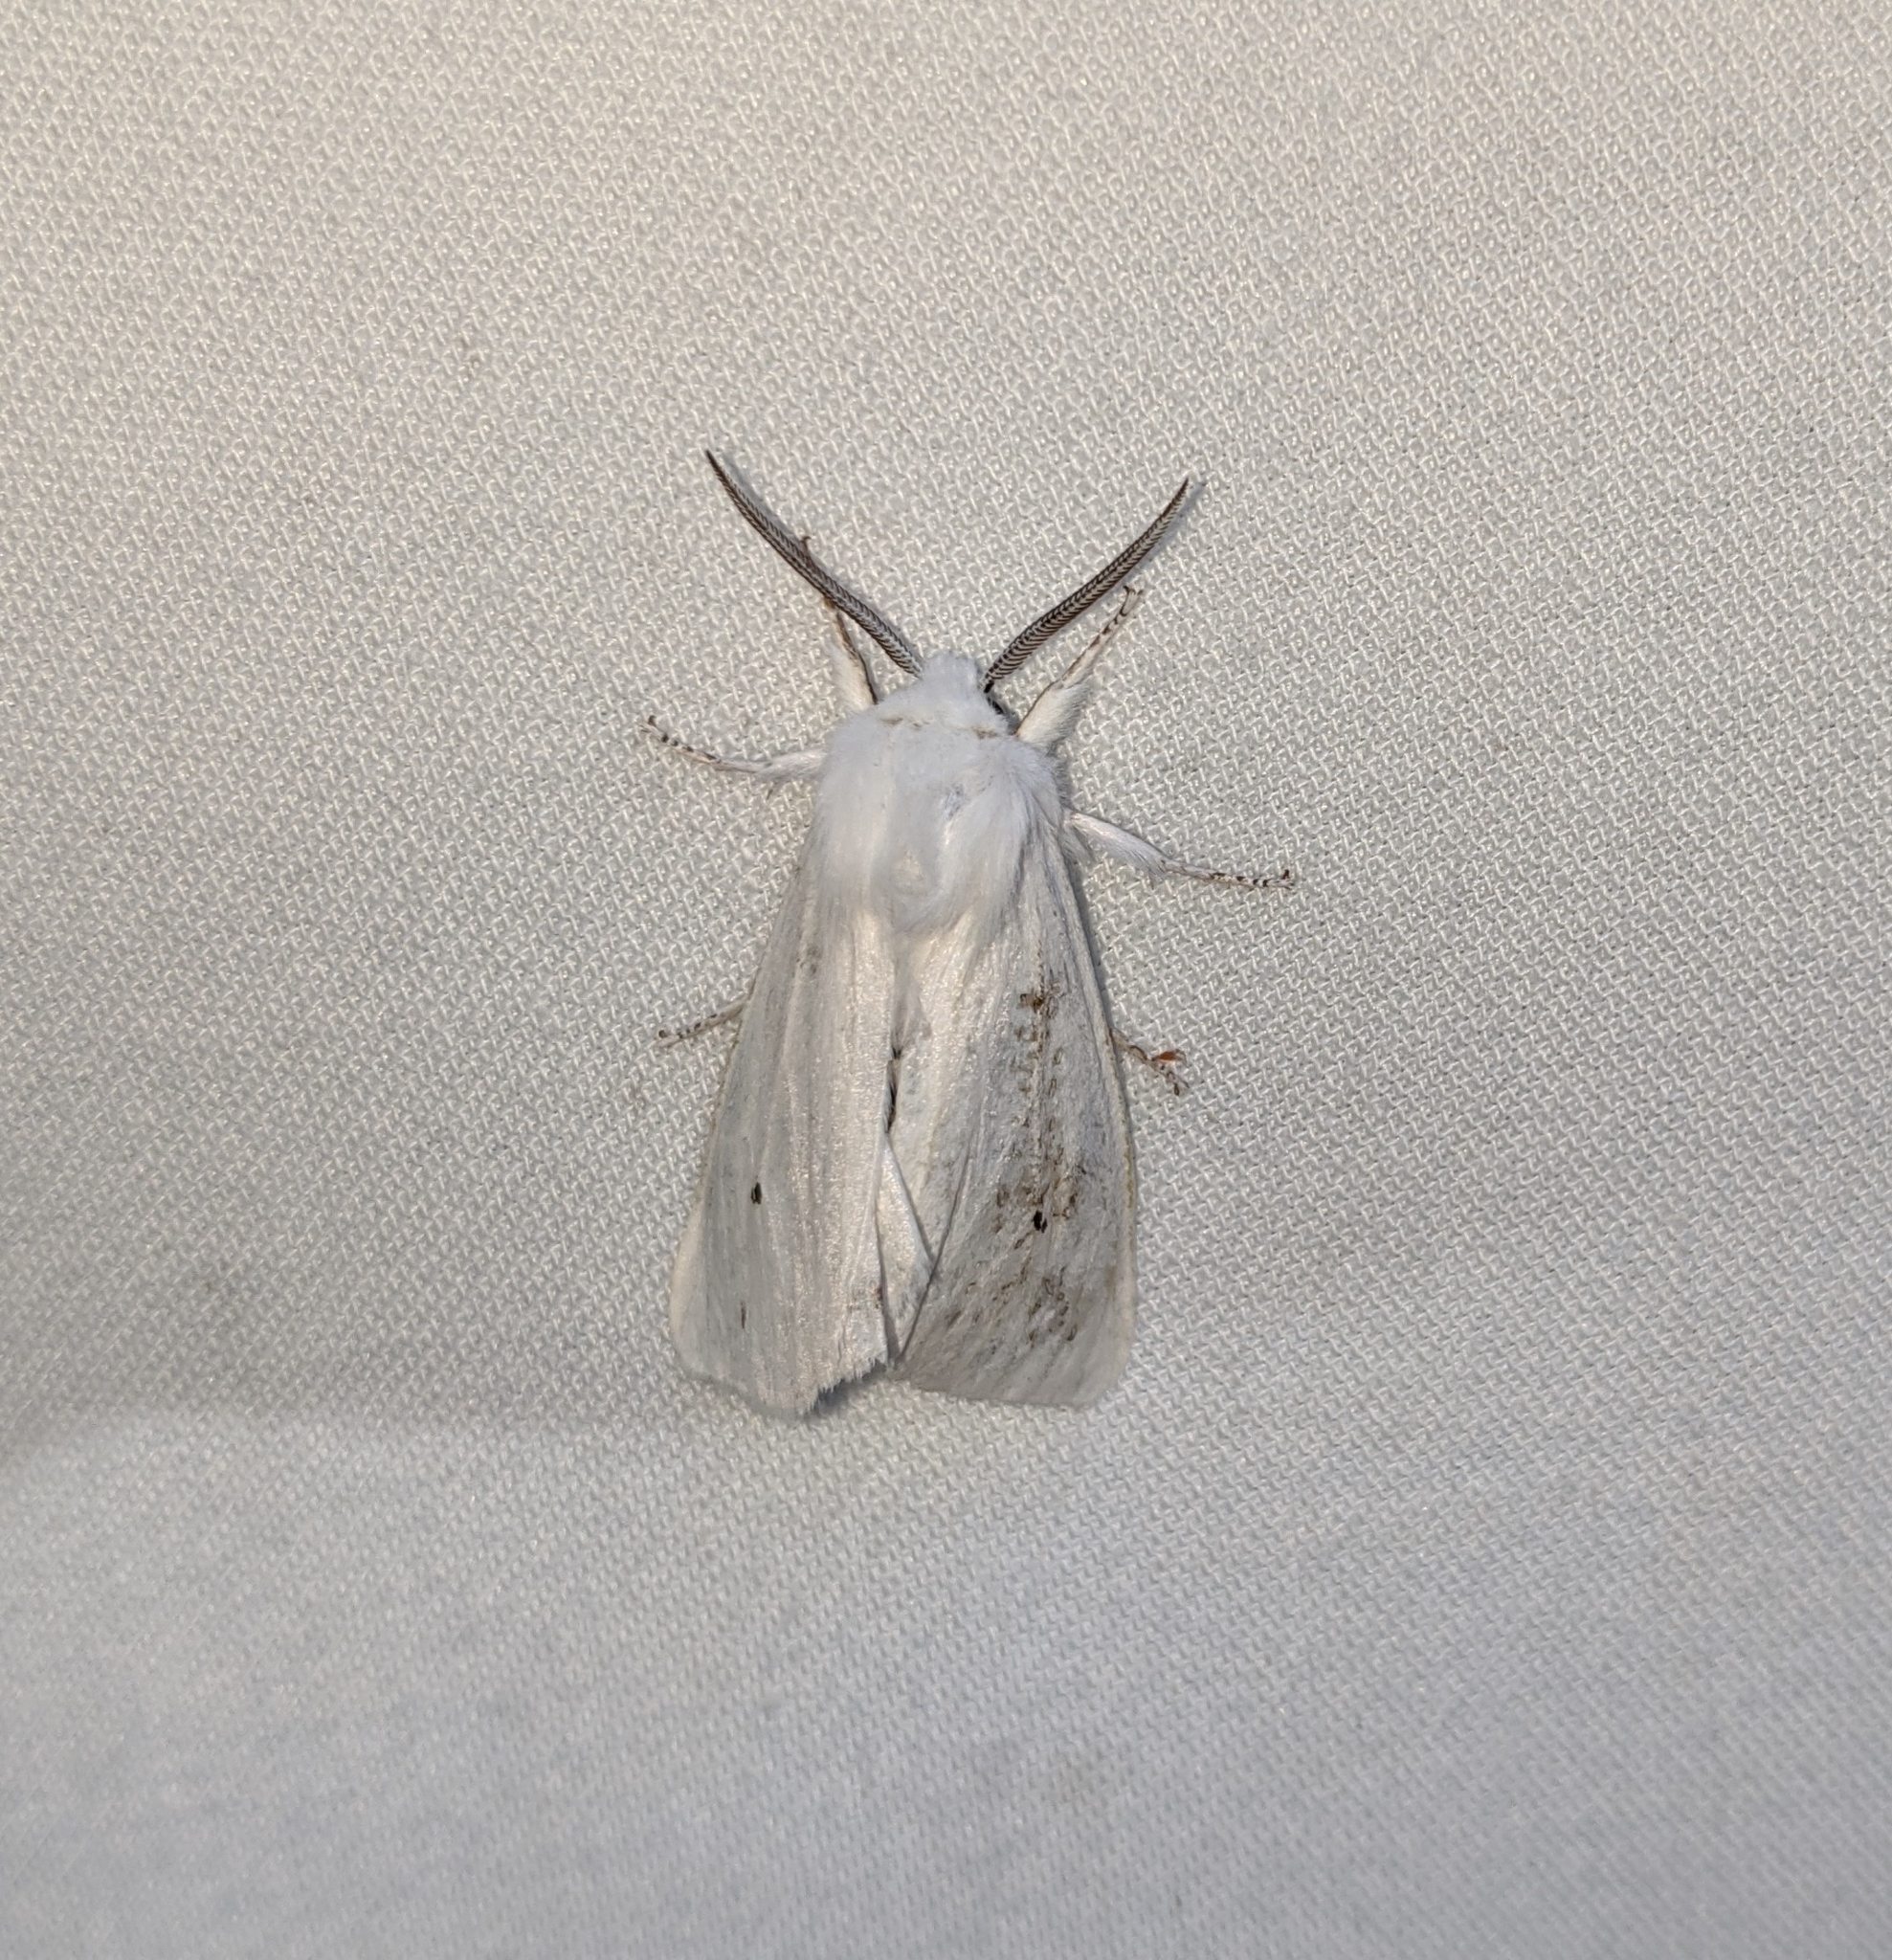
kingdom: Animalia
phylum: Arthropoda
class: Insecta
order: Lepidoptera
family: Erebidae
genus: Spilosoma
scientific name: Spilosoma virginica
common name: Virginia tiger moth
